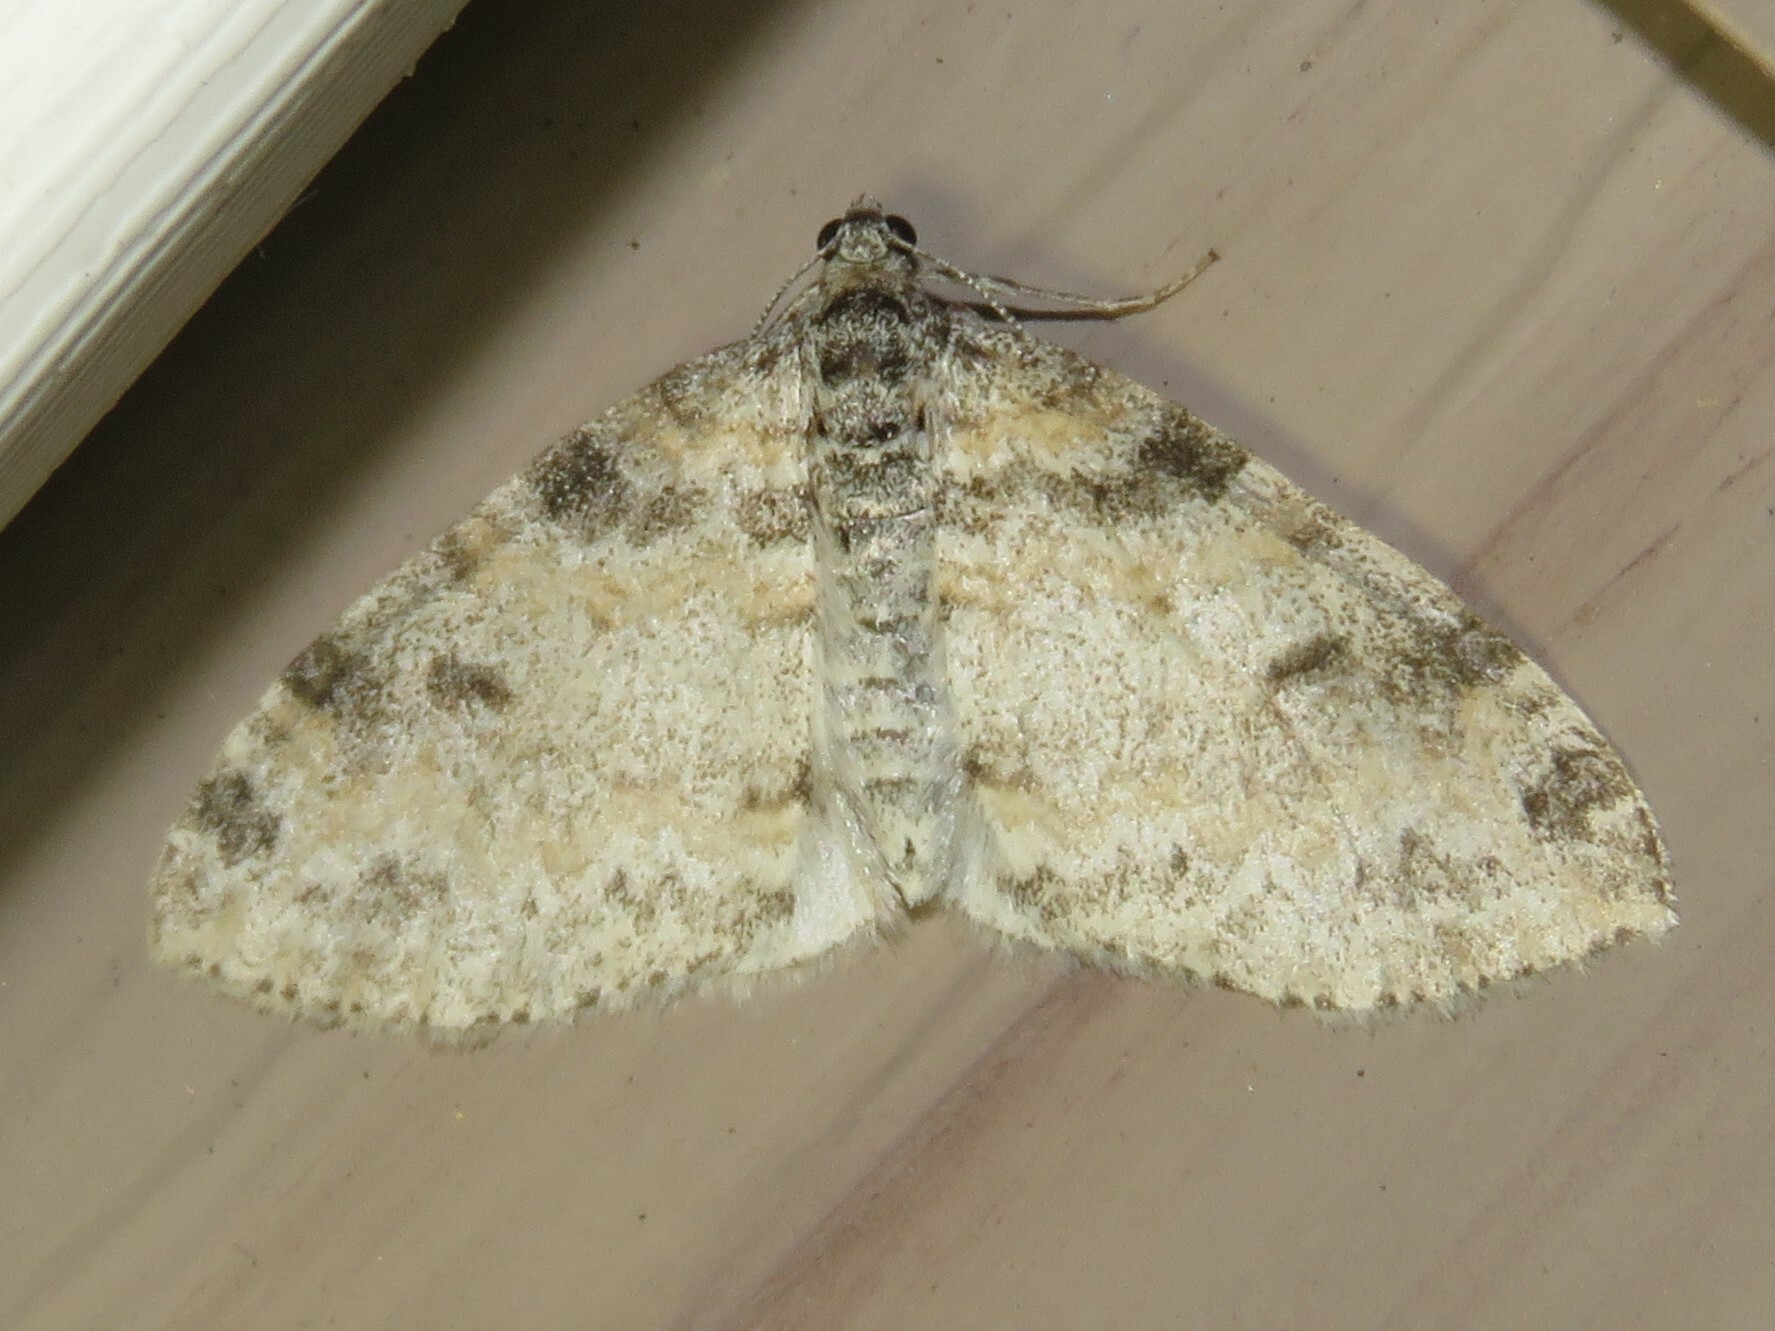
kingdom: Animalia
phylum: Arthropoda
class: Insecta
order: Lepidoptera
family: Geometridae
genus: Lobophora
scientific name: Lobophora nivigerata
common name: Powdered bigwing
